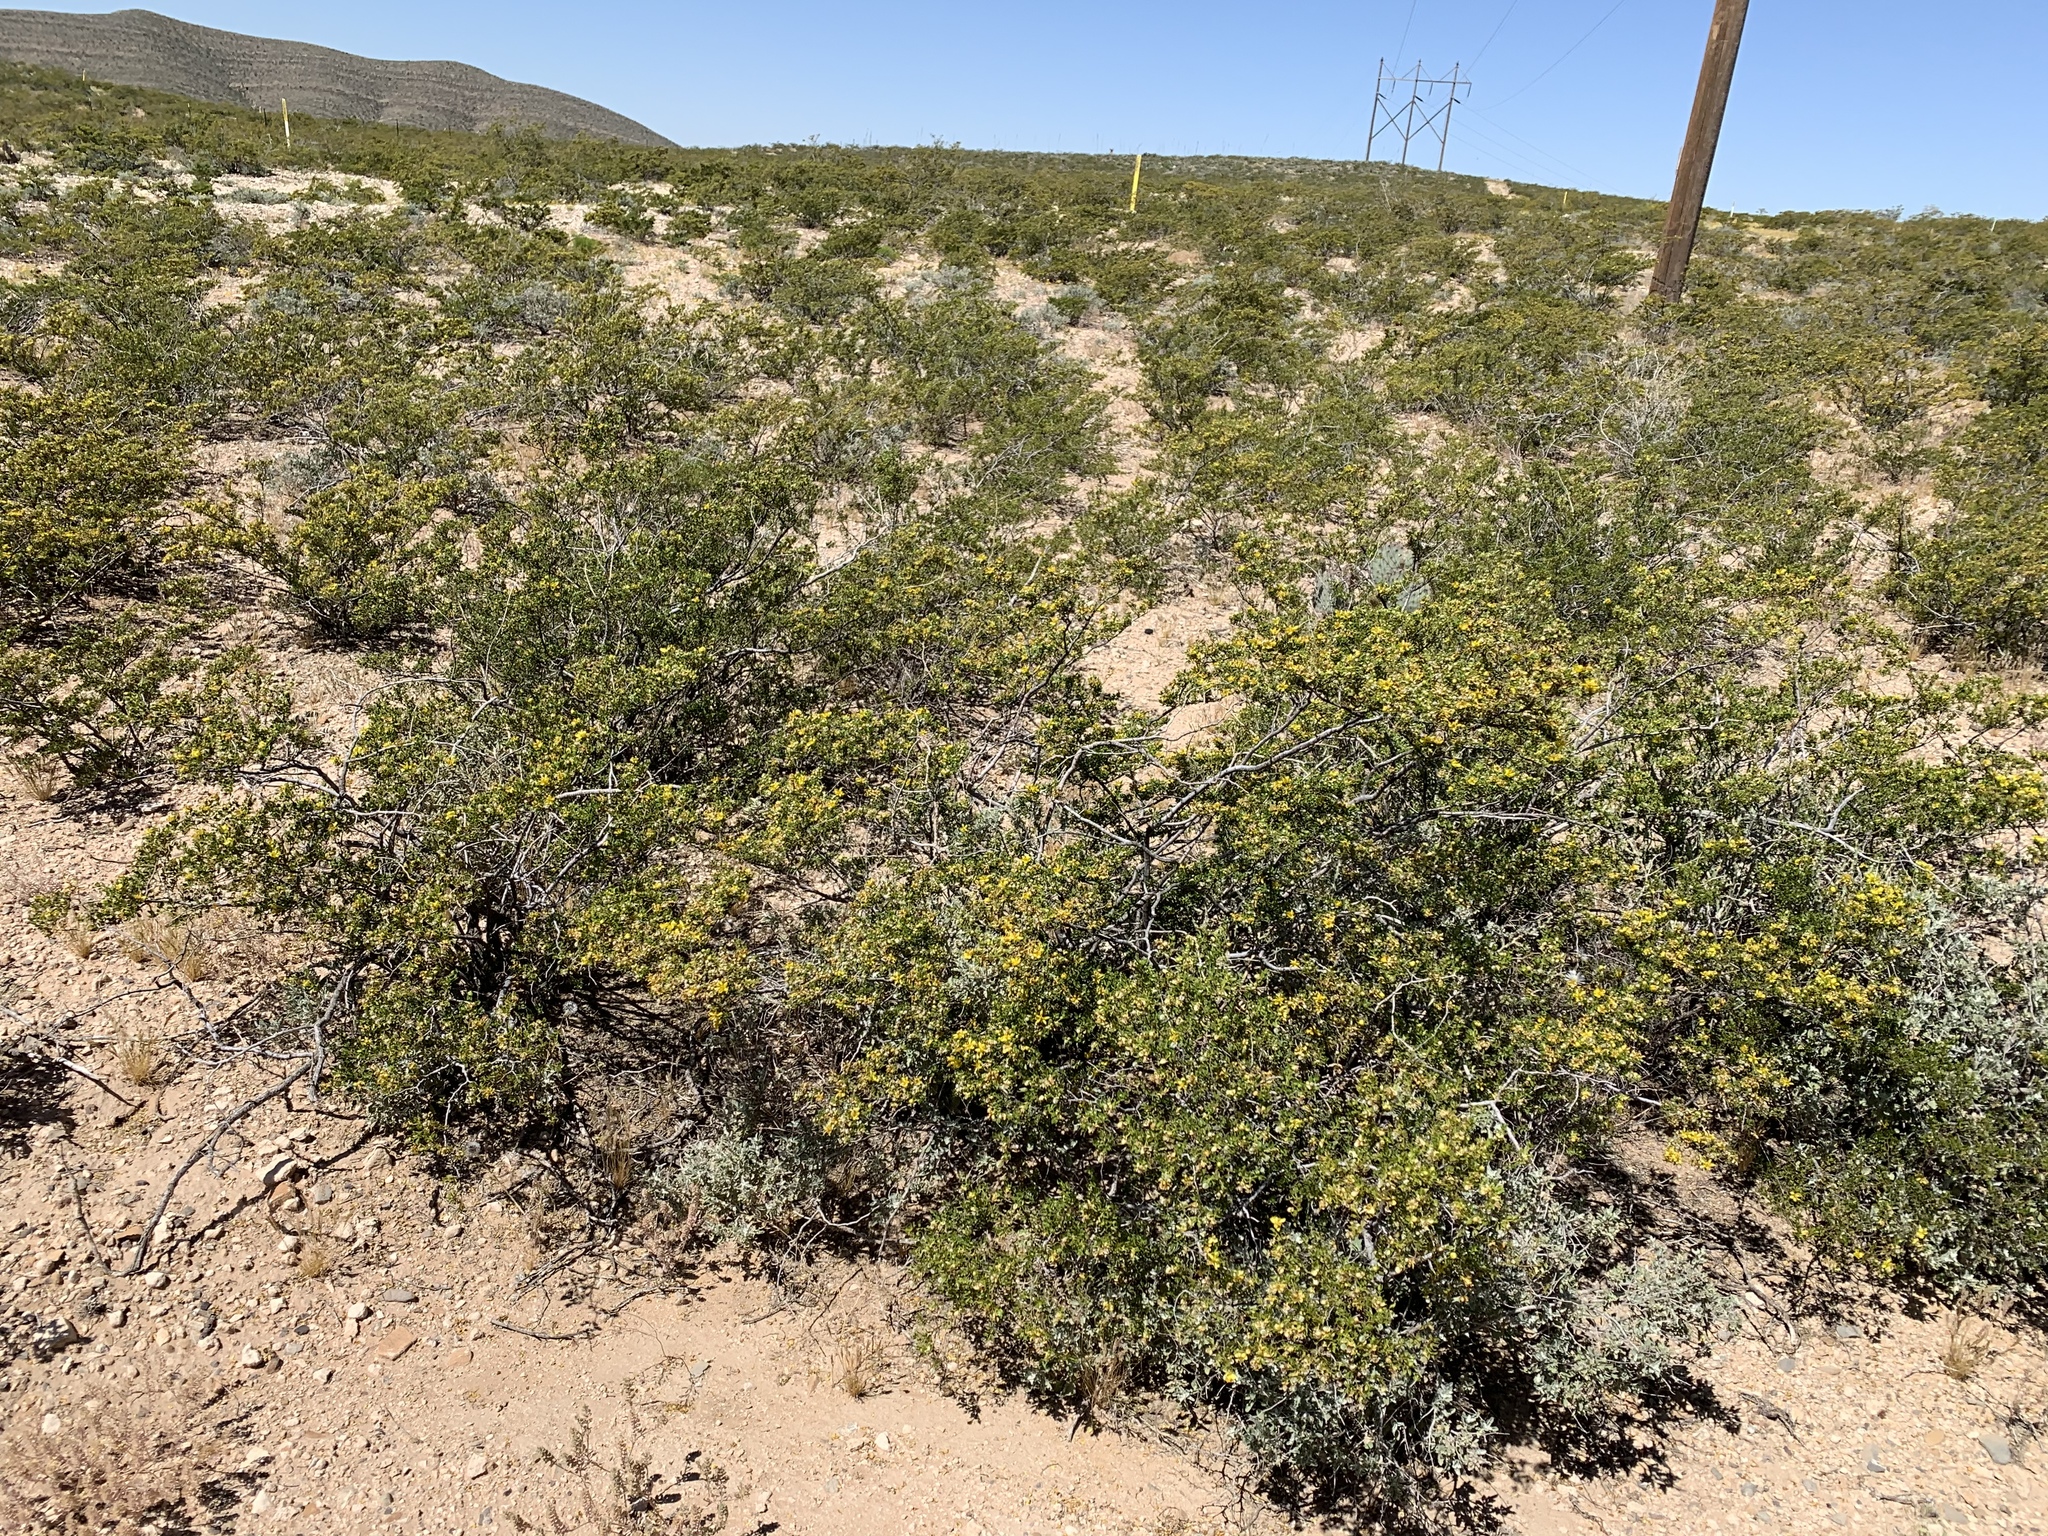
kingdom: Plantae
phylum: Tracheophyta
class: Magnoliopsida
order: Zygophyllales
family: Zygophyllaceae
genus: Larrea
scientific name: Larrea tridentata
